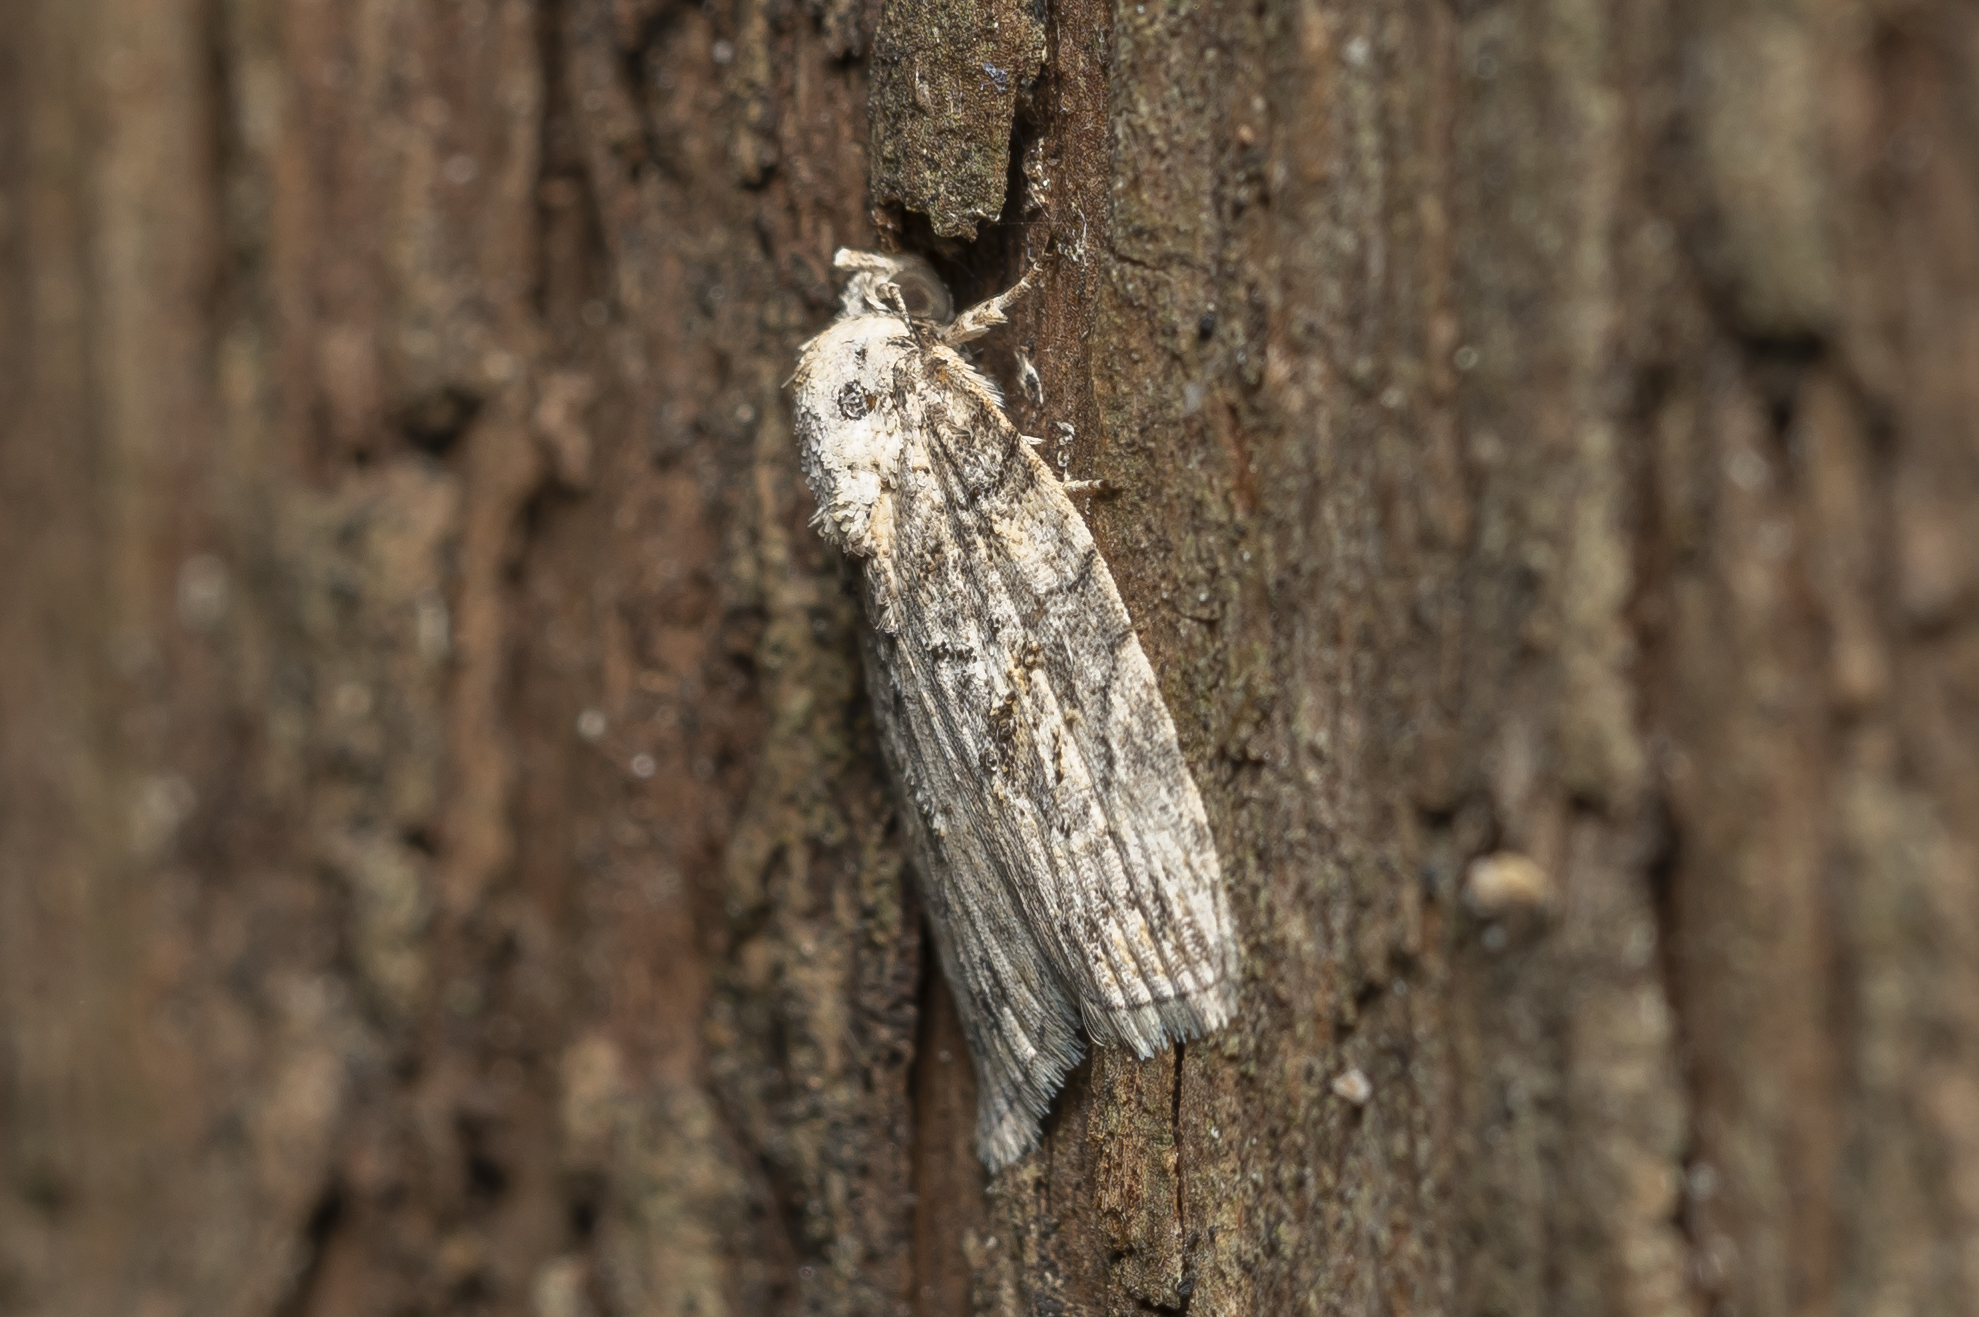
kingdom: Animalia
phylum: Arthropoda
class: Insecta
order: Lepidoptera
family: Nolidae
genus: Garella
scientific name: Garella nilotica
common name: Black-olive caterpillar moth
